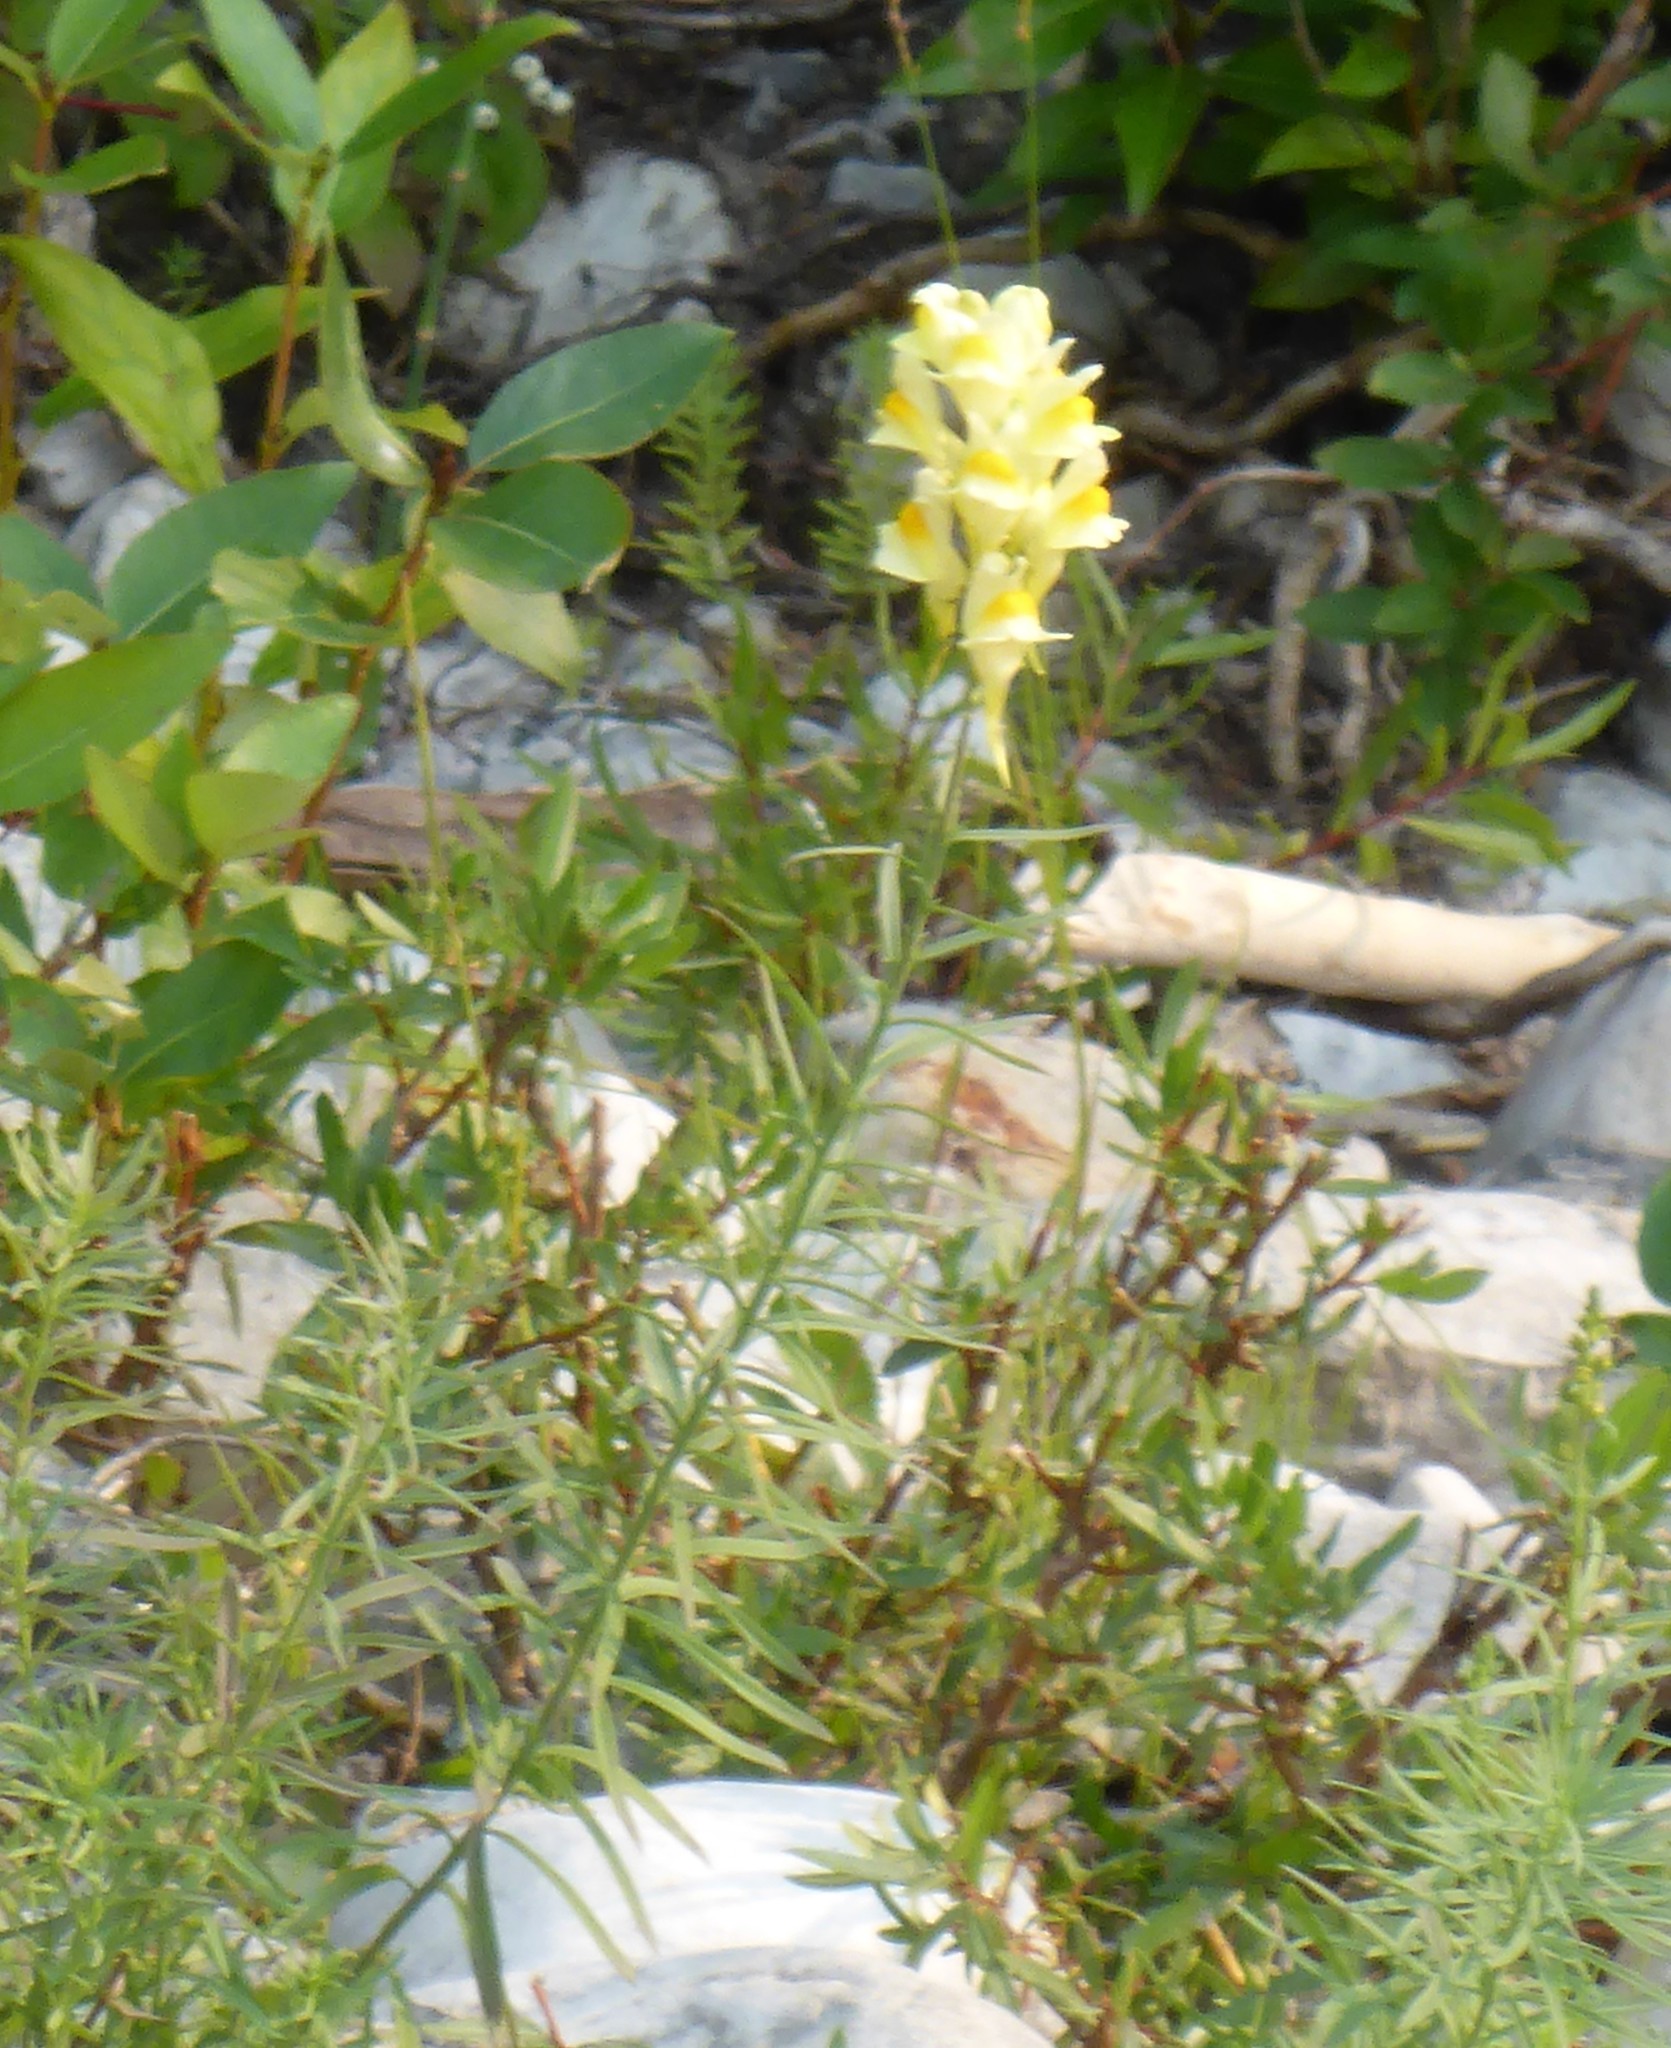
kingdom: Plantae
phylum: Tracheophyta
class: Magnoliopsida
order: Lamiales
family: Plantaginaceae
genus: Linaria
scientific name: Linaria vulgaris
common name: Butter and eggs
